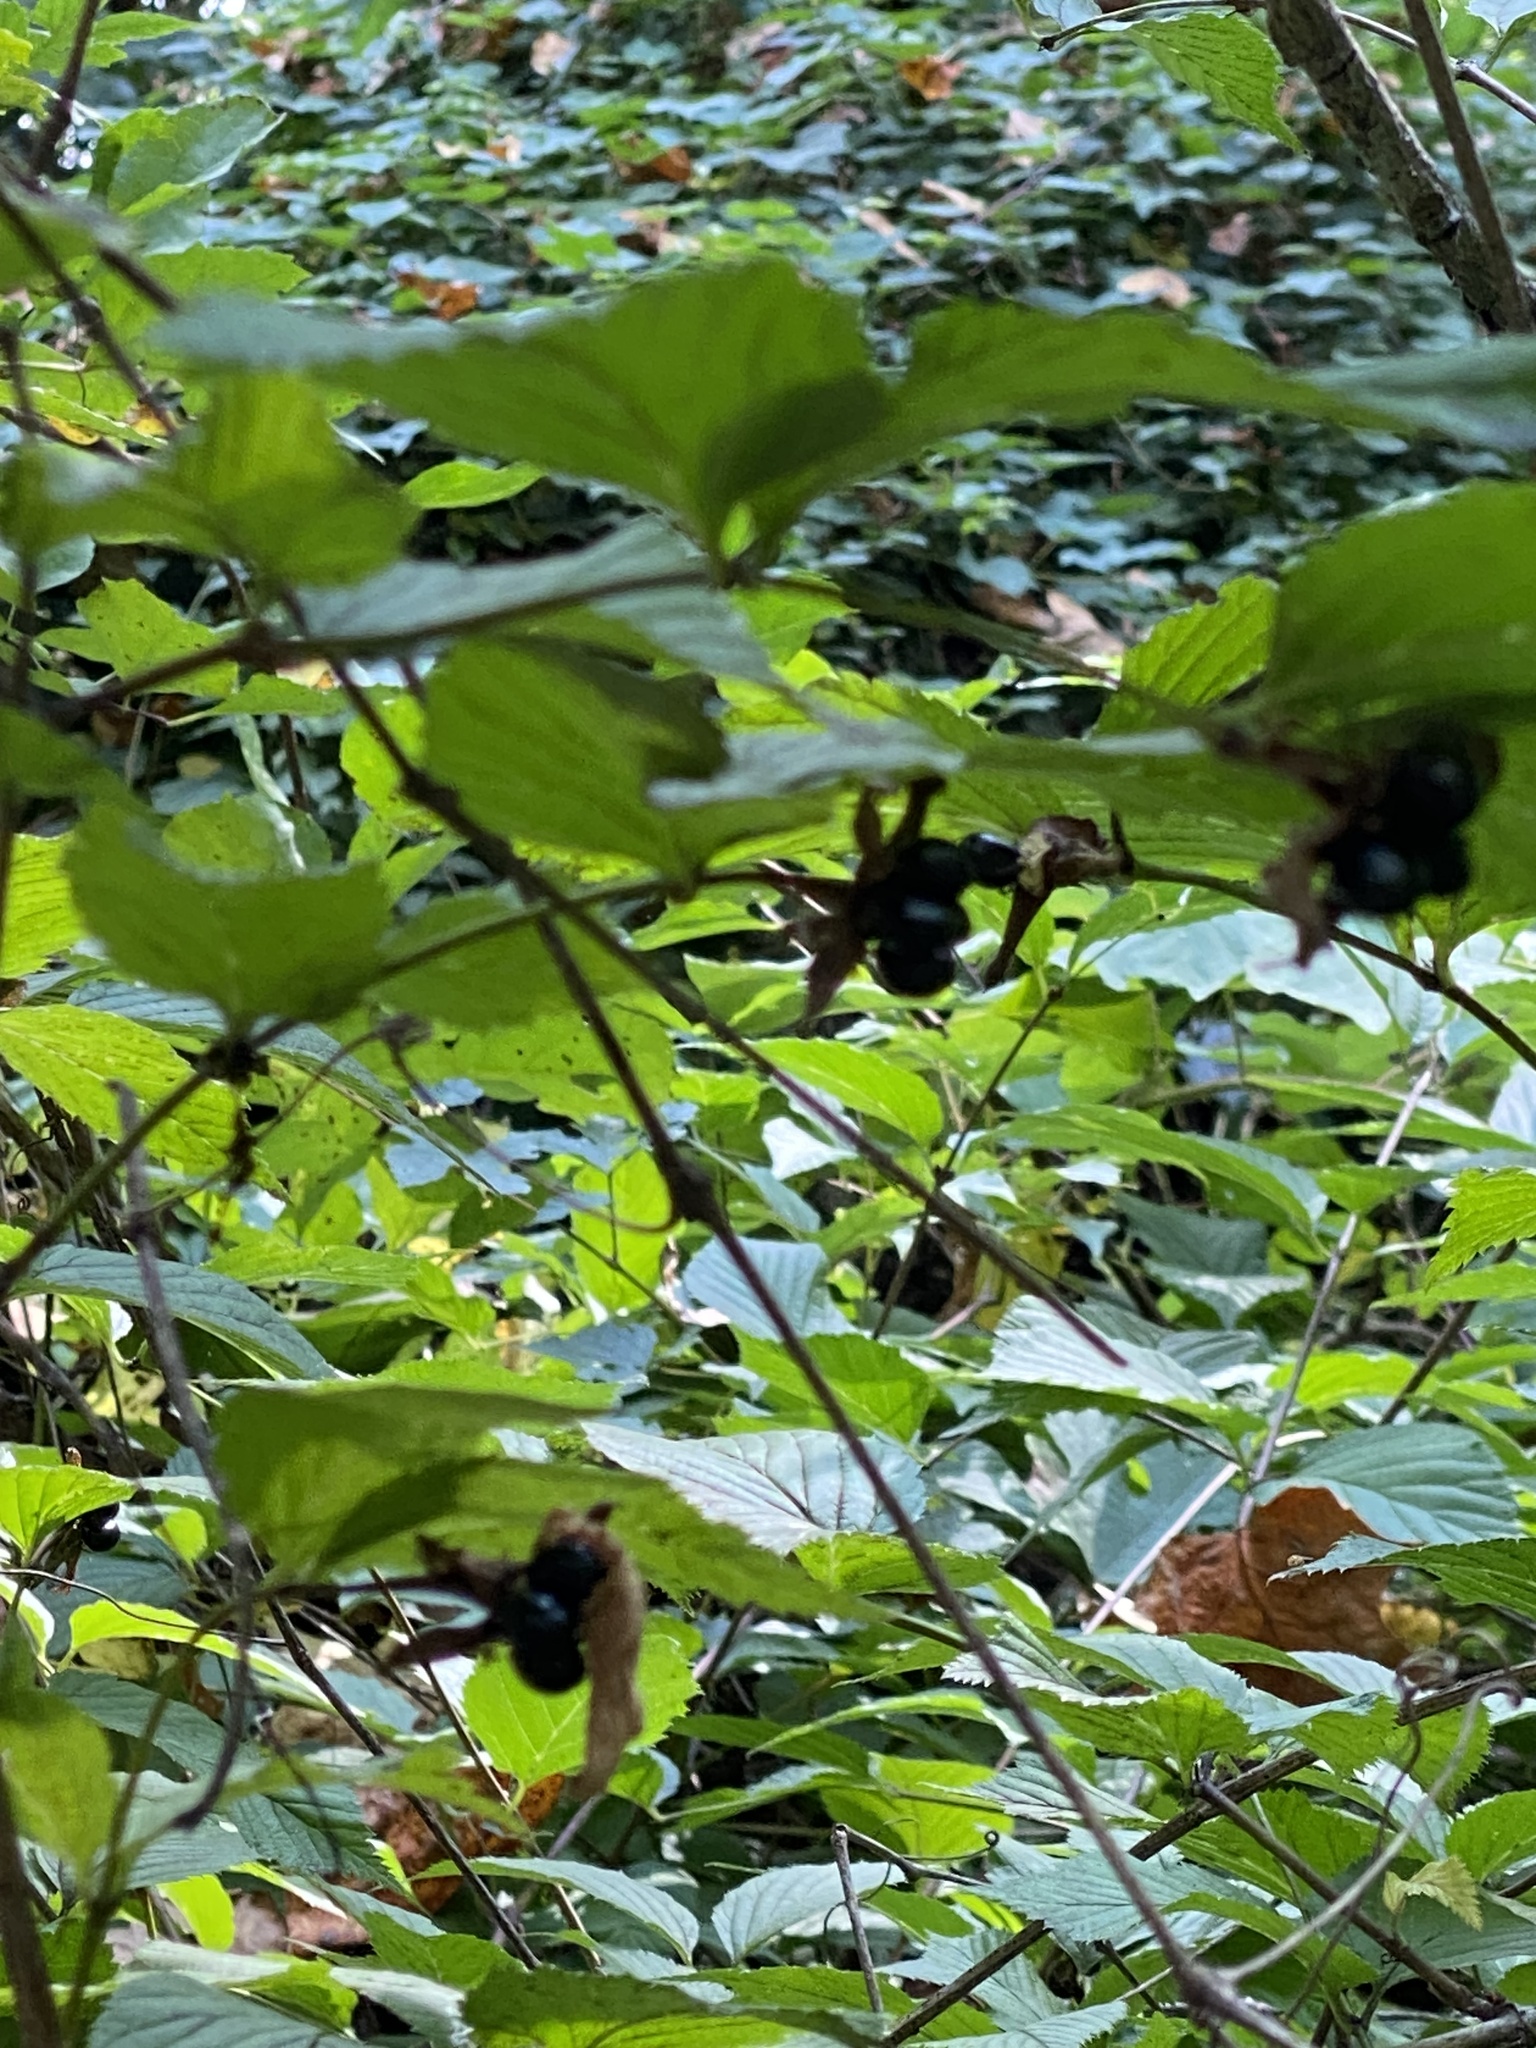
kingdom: Plantae
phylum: Tracheophyta
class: Magnoliopsida
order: Rosales
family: Rosaceae
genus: Rhodotypos
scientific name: Rhodotypos scandens
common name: Jetbead
